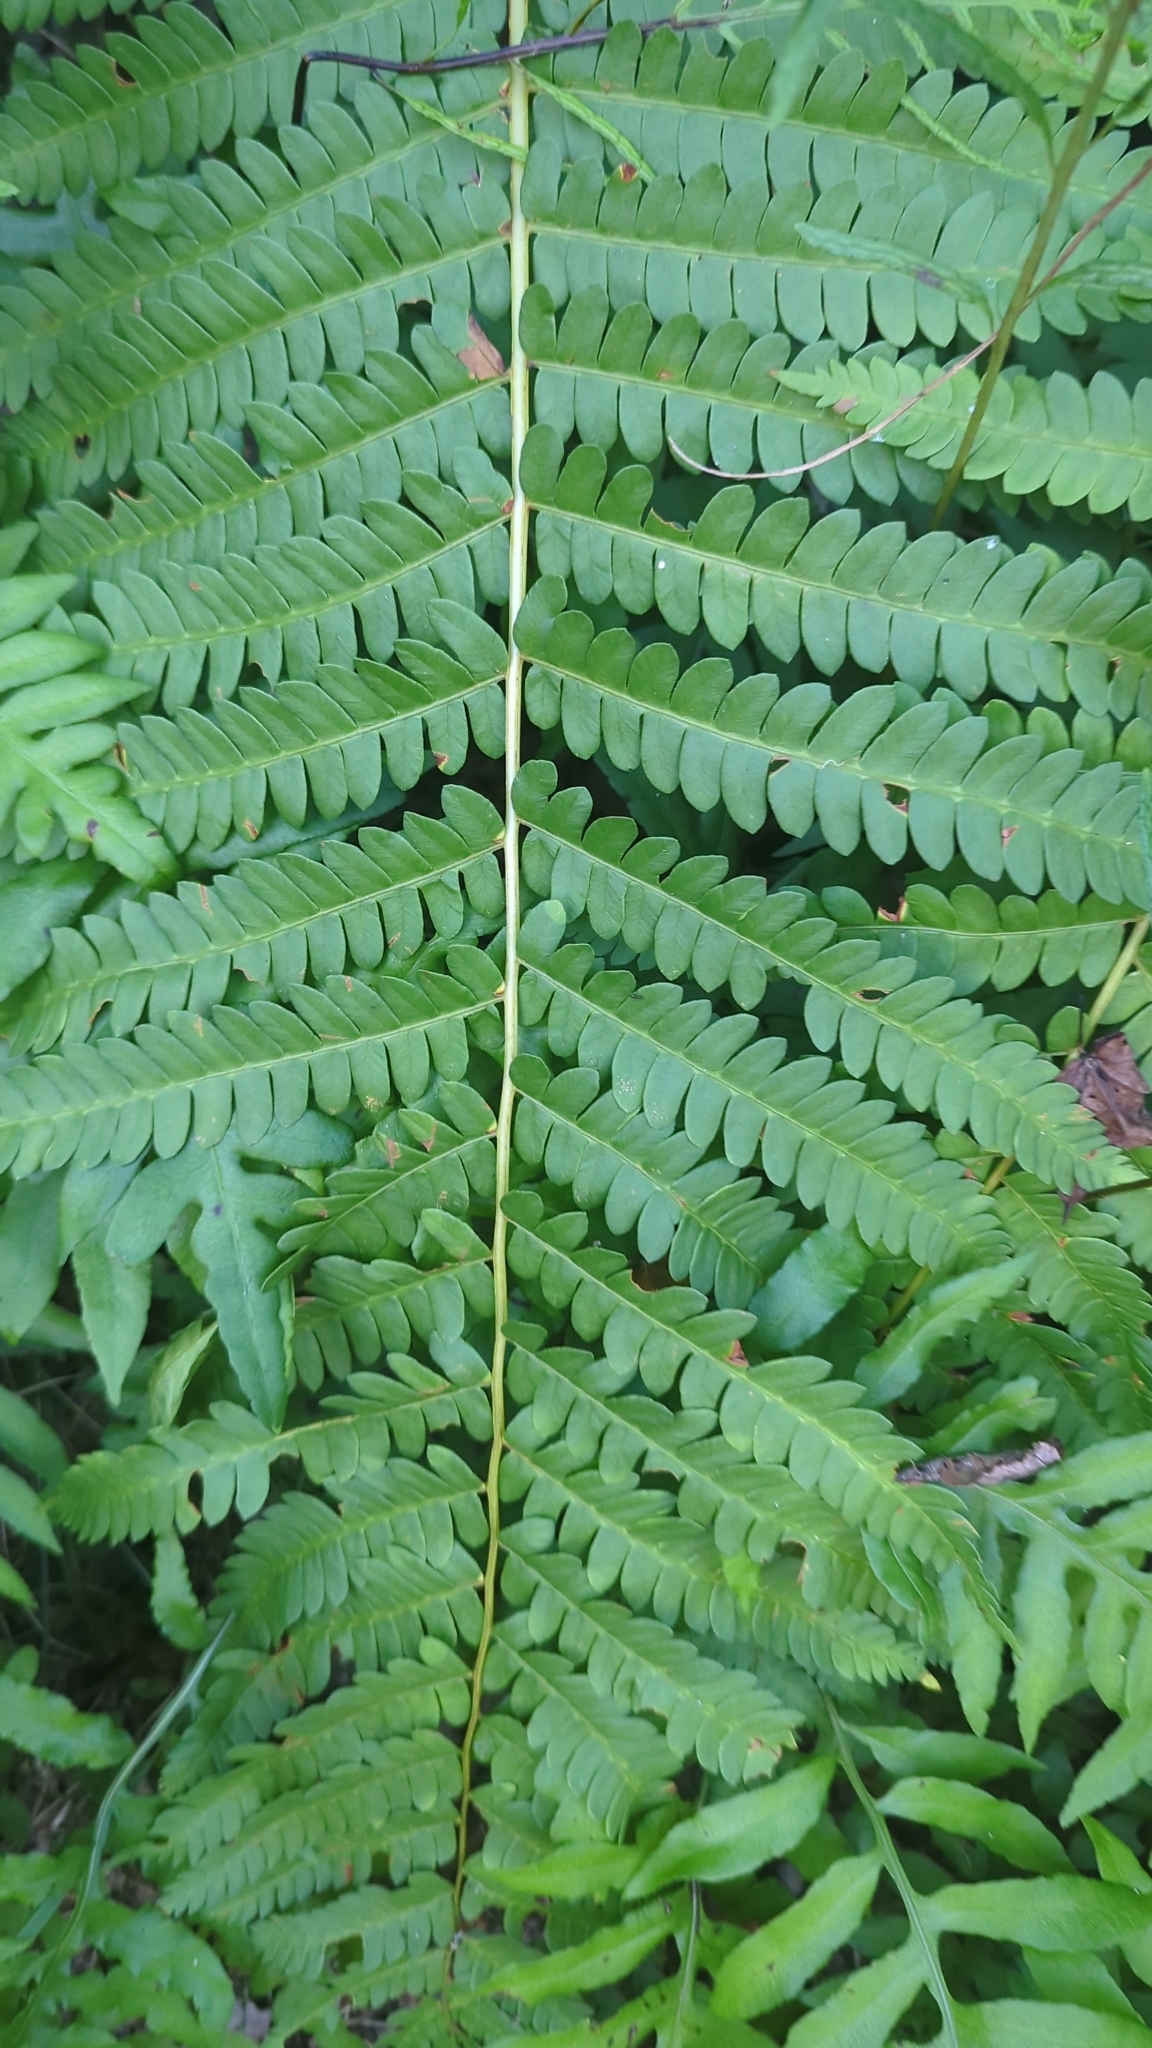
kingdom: Plantae
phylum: Tracheophyta
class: Polypodiopsida
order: Osmundales
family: Osmundaceae
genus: Osmundastrum
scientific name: Osmundastrum cinnamomeum
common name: Cinnamon fern
